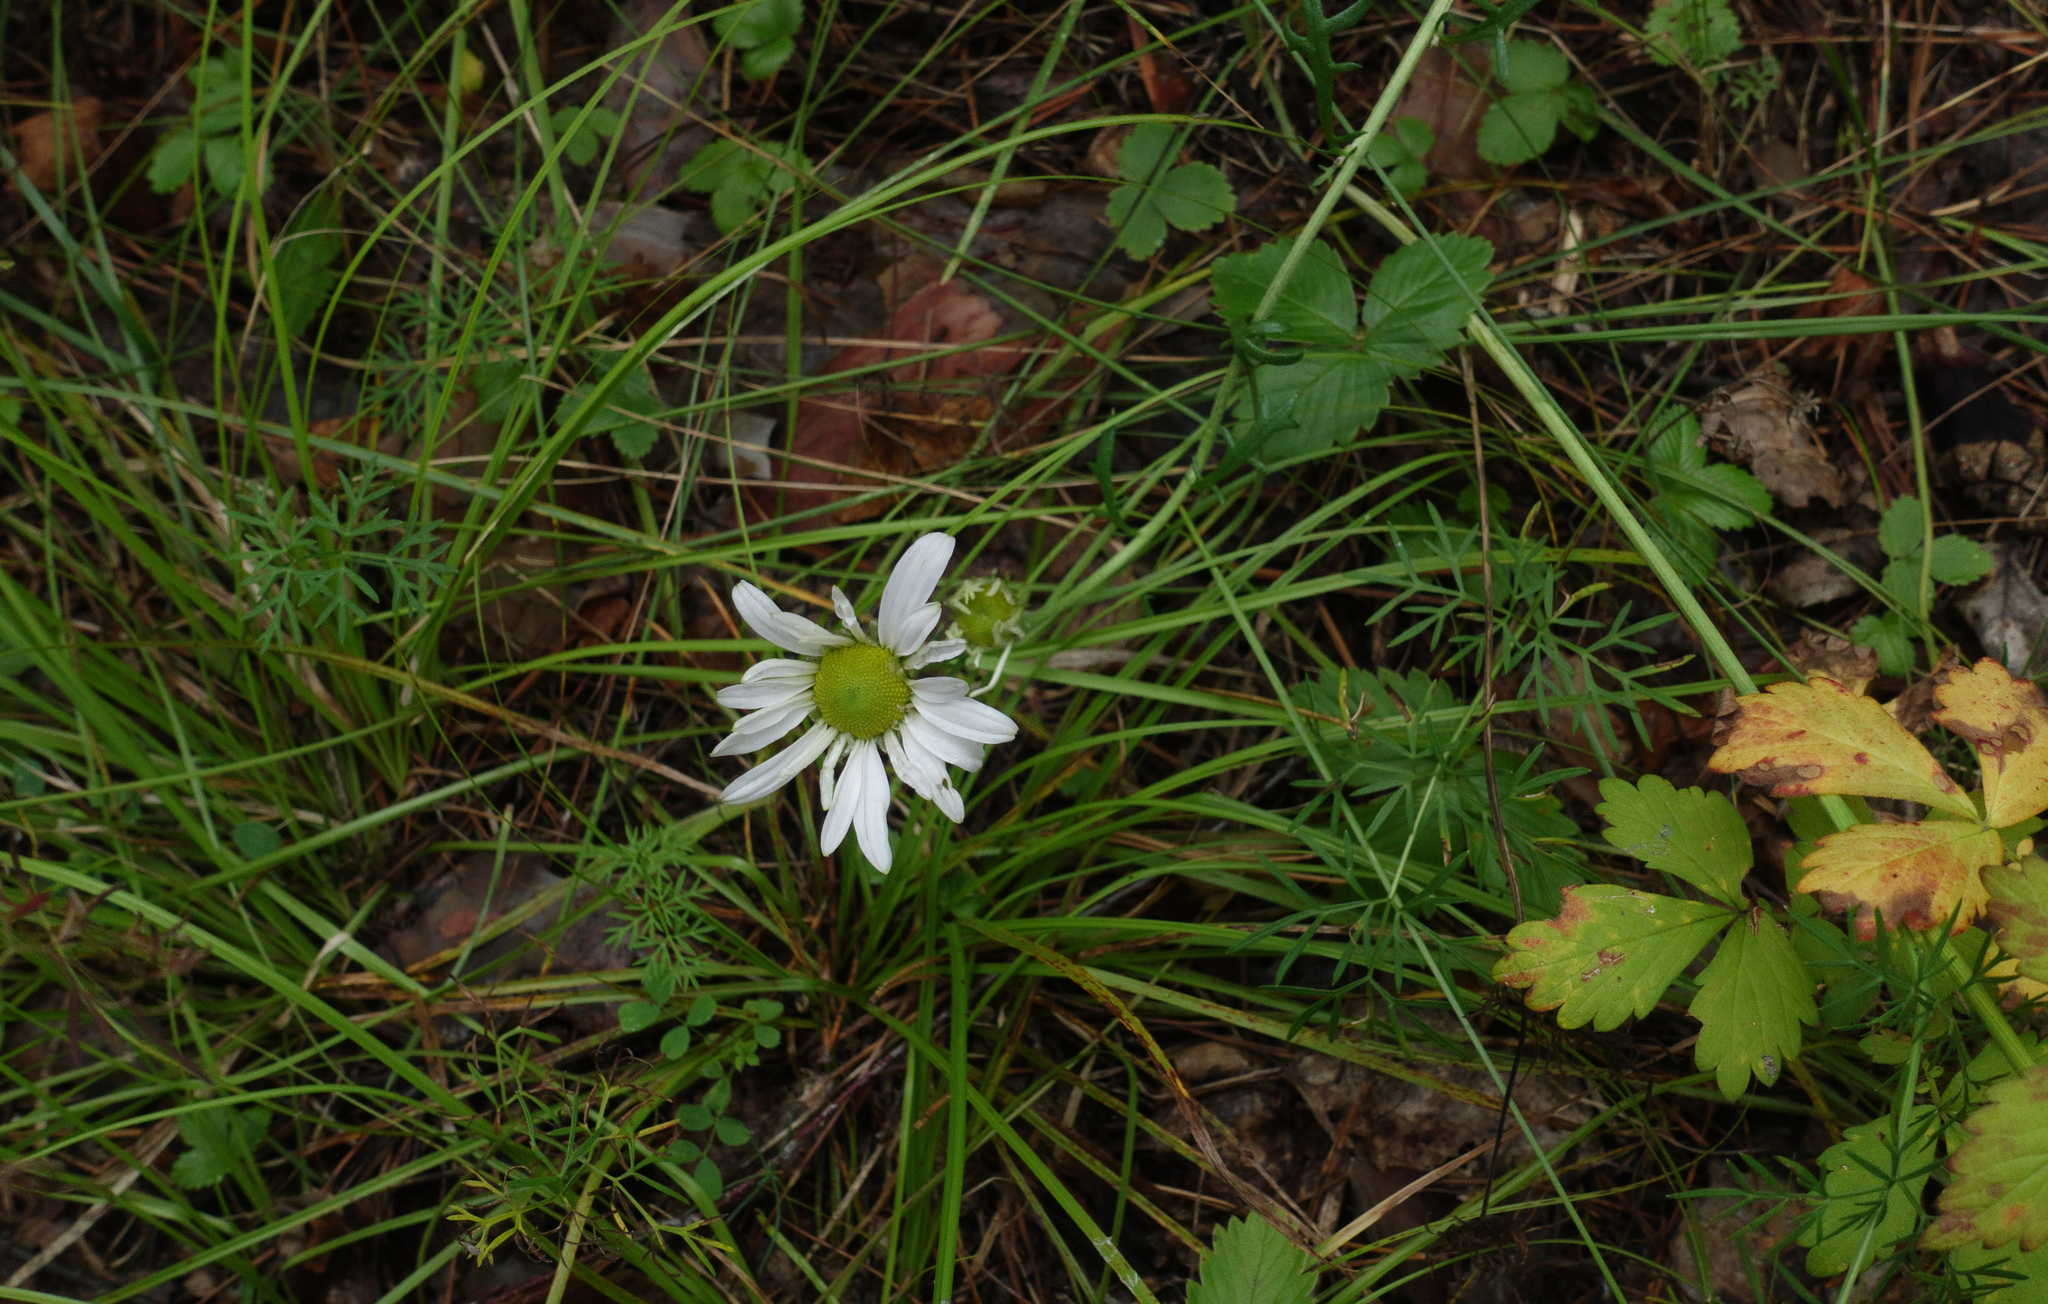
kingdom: Plantae
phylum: Tracheophyta
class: Magnoliopsida
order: Asterales
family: Asteraceae
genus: Chrysanthemum
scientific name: Chrysanthemum zawadzkii
